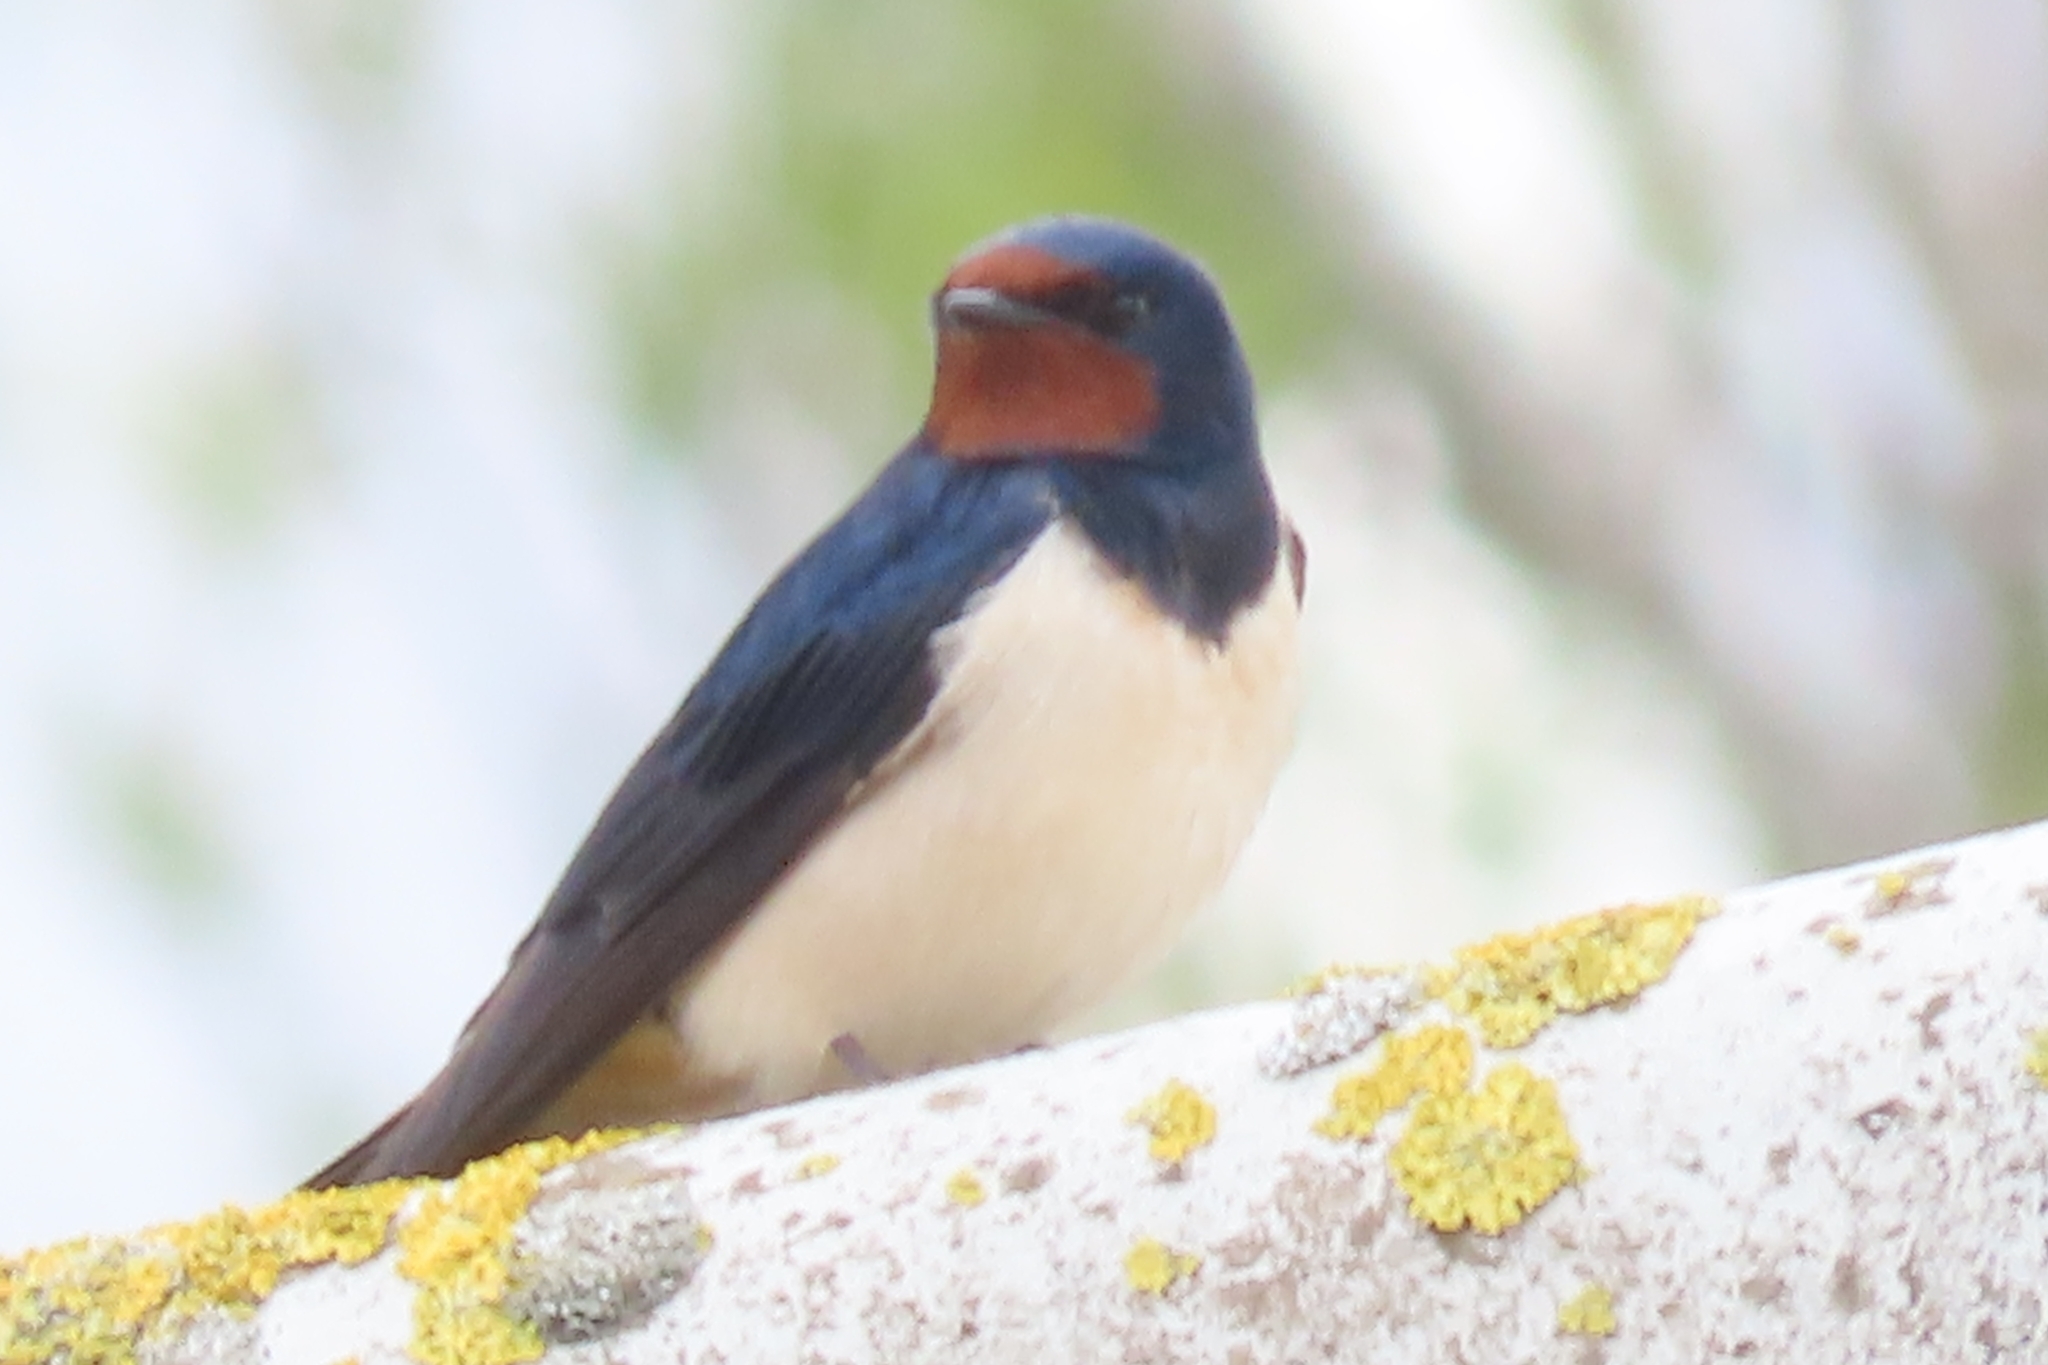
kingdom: Animalia
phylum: Chordata
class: Aves
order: Passeriformes
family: Hirundinidae
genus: Hirundo
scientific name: Hirundo rustica
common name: Barn swallow
